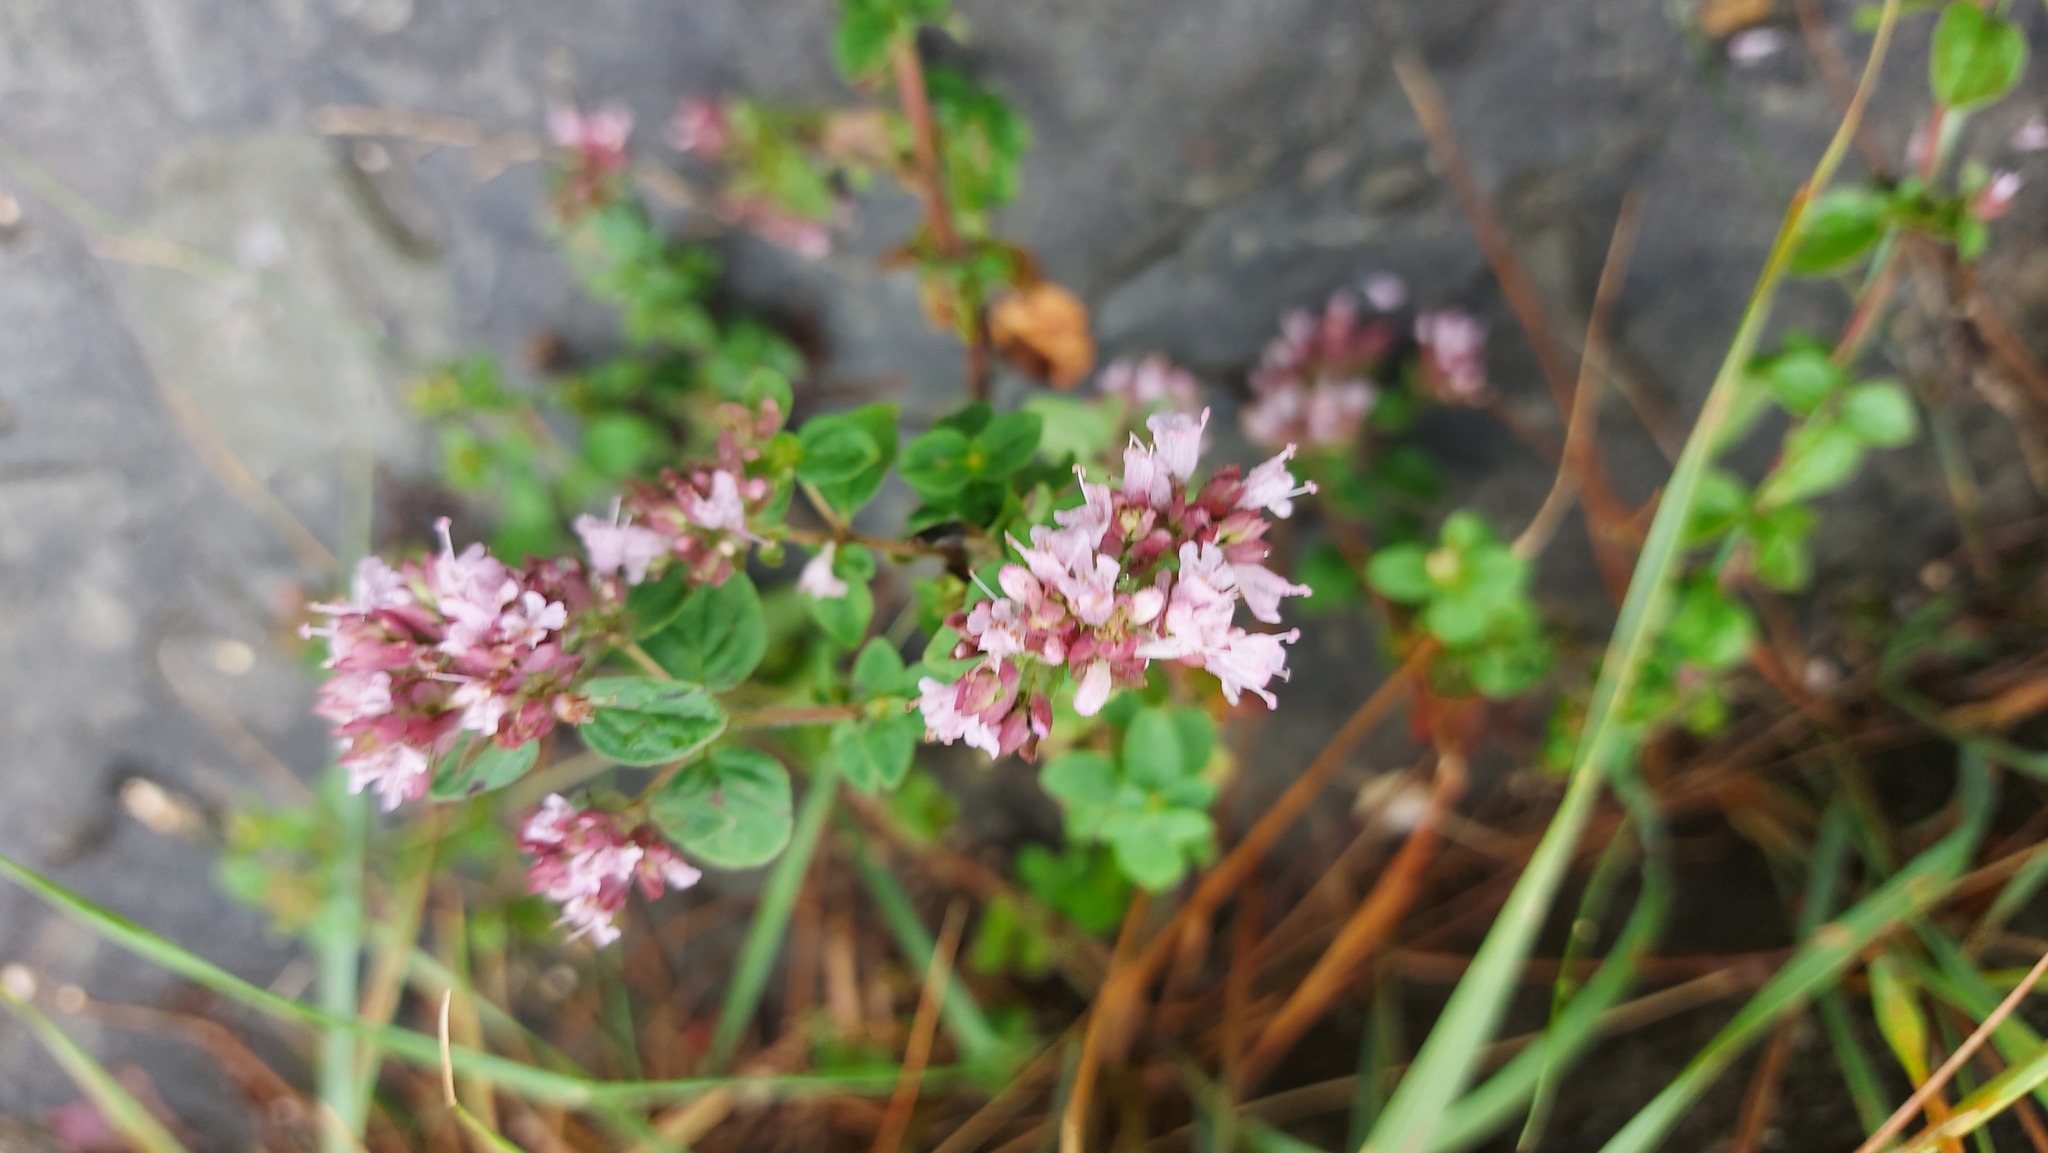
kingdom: Plantae
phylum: Tracheophyta
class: Magnoliopsida
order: Lamiales
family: Lamiaceae
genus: Origanum
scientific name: Origanum vulgare
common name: Wild marjoram
